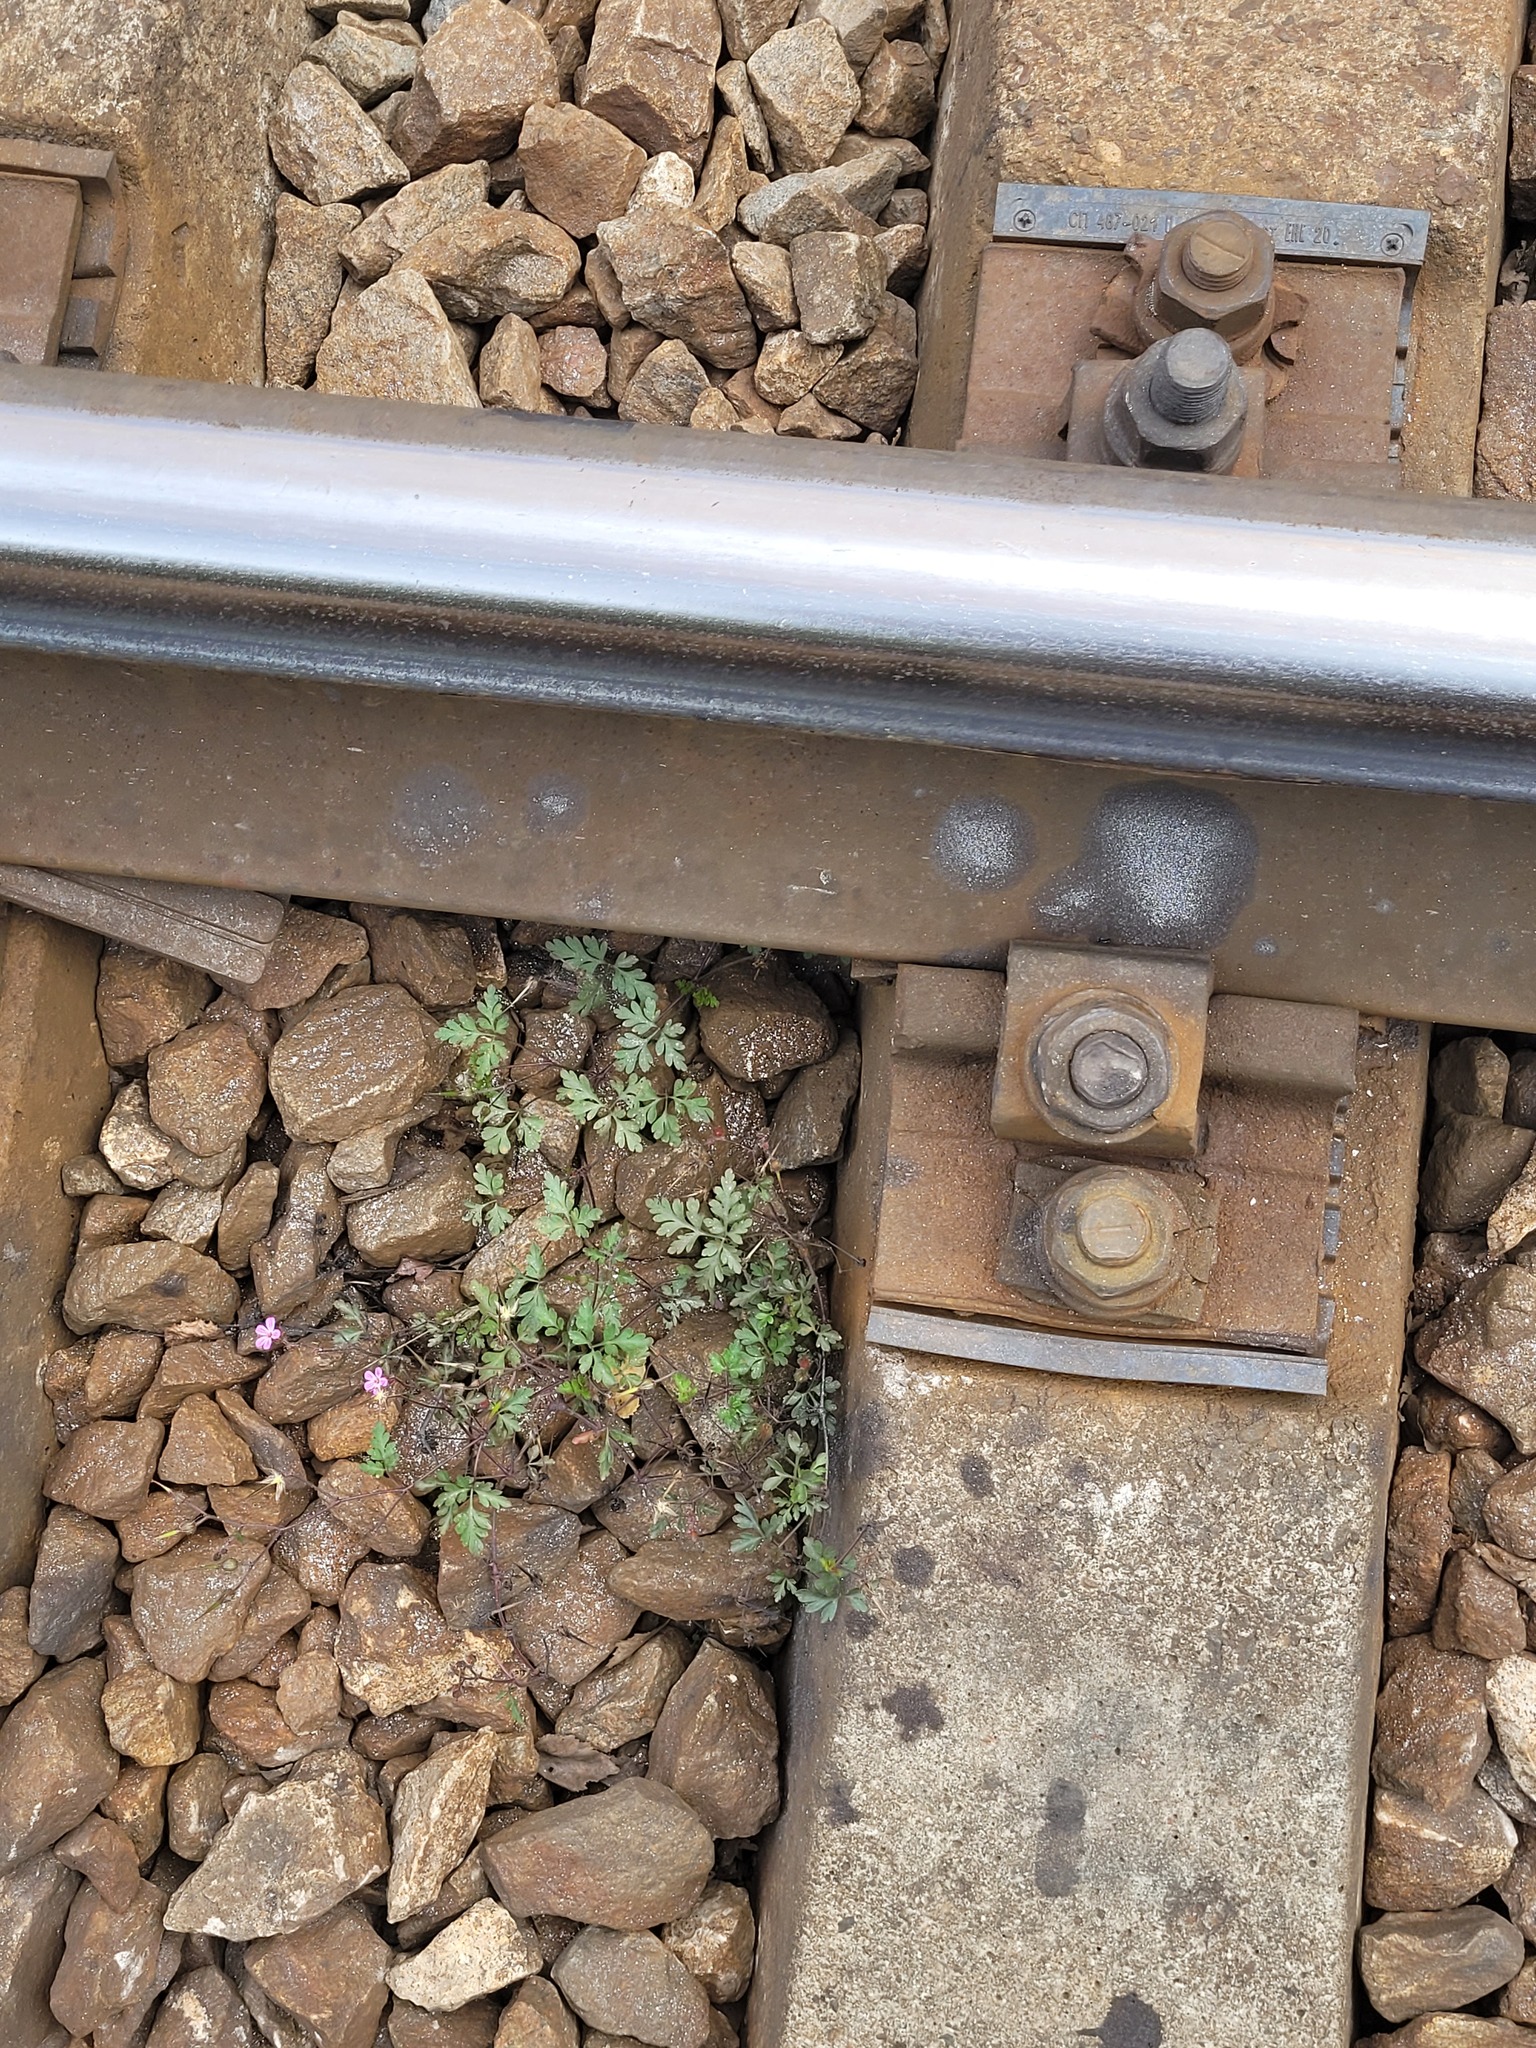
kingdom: Plantae
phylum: Tracheophyta
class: Magnoliopsida
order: Geraniales
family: Geraniaceae
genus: Geranium
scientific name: Geranium robertianum
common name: Herb-robert
